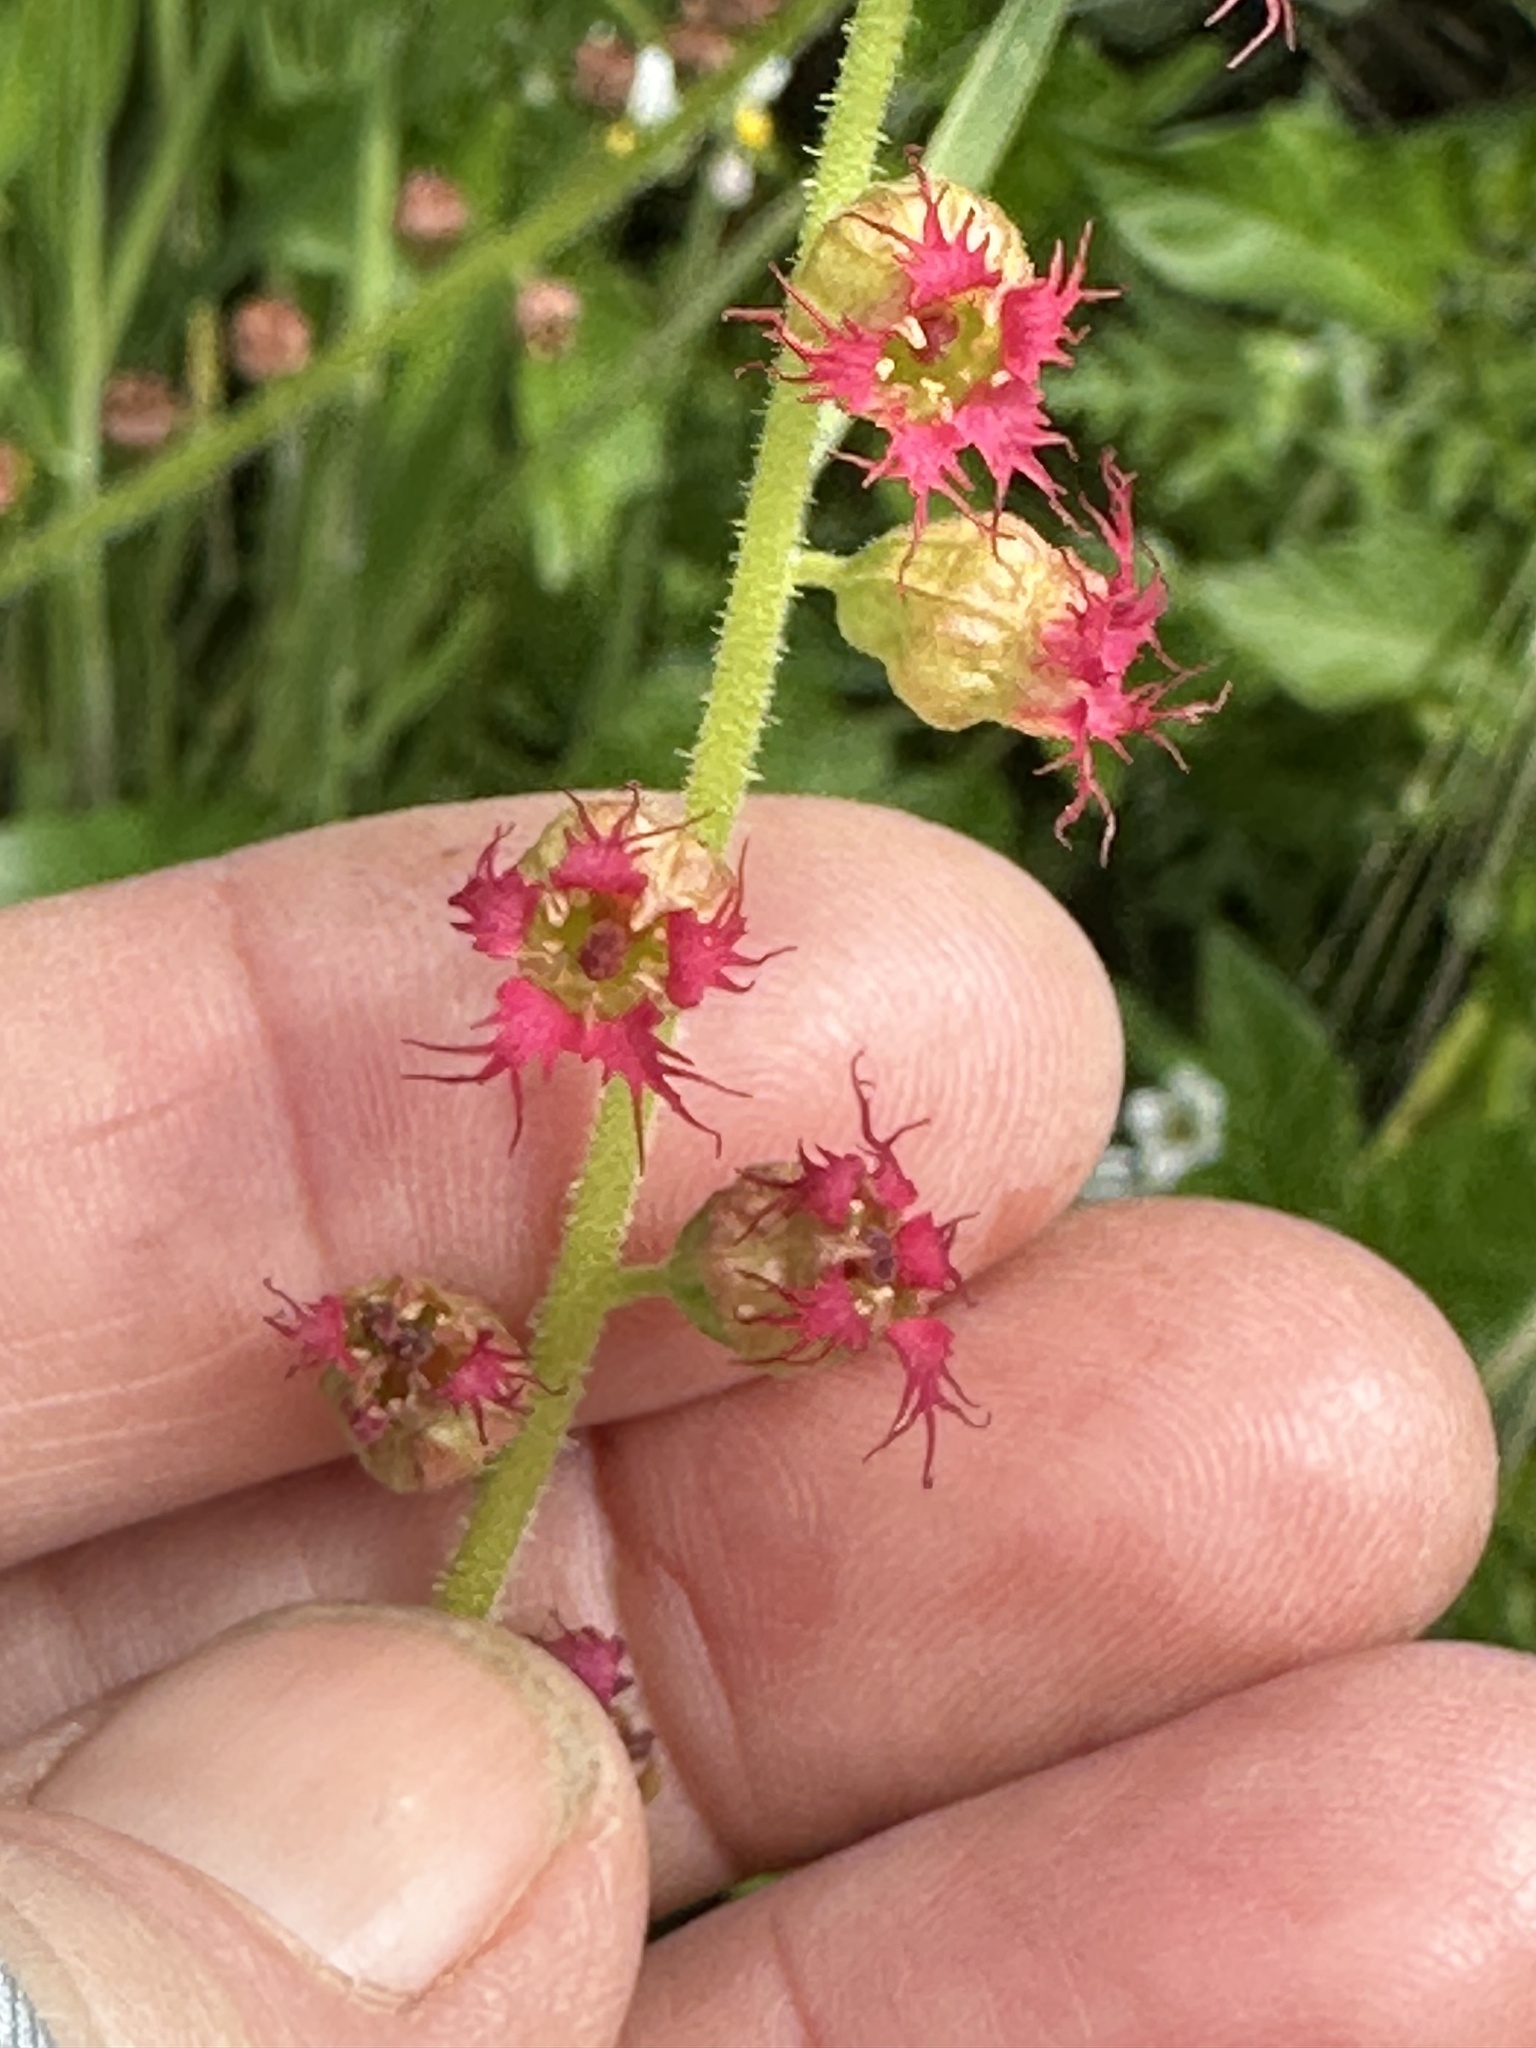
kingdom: Plantae
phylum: Tracheophyta
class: Magnoliopsida
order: Saxifragales
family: Saxifragaceae
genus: Tellima
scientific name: Tellima grandiflora
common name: Fringecups
